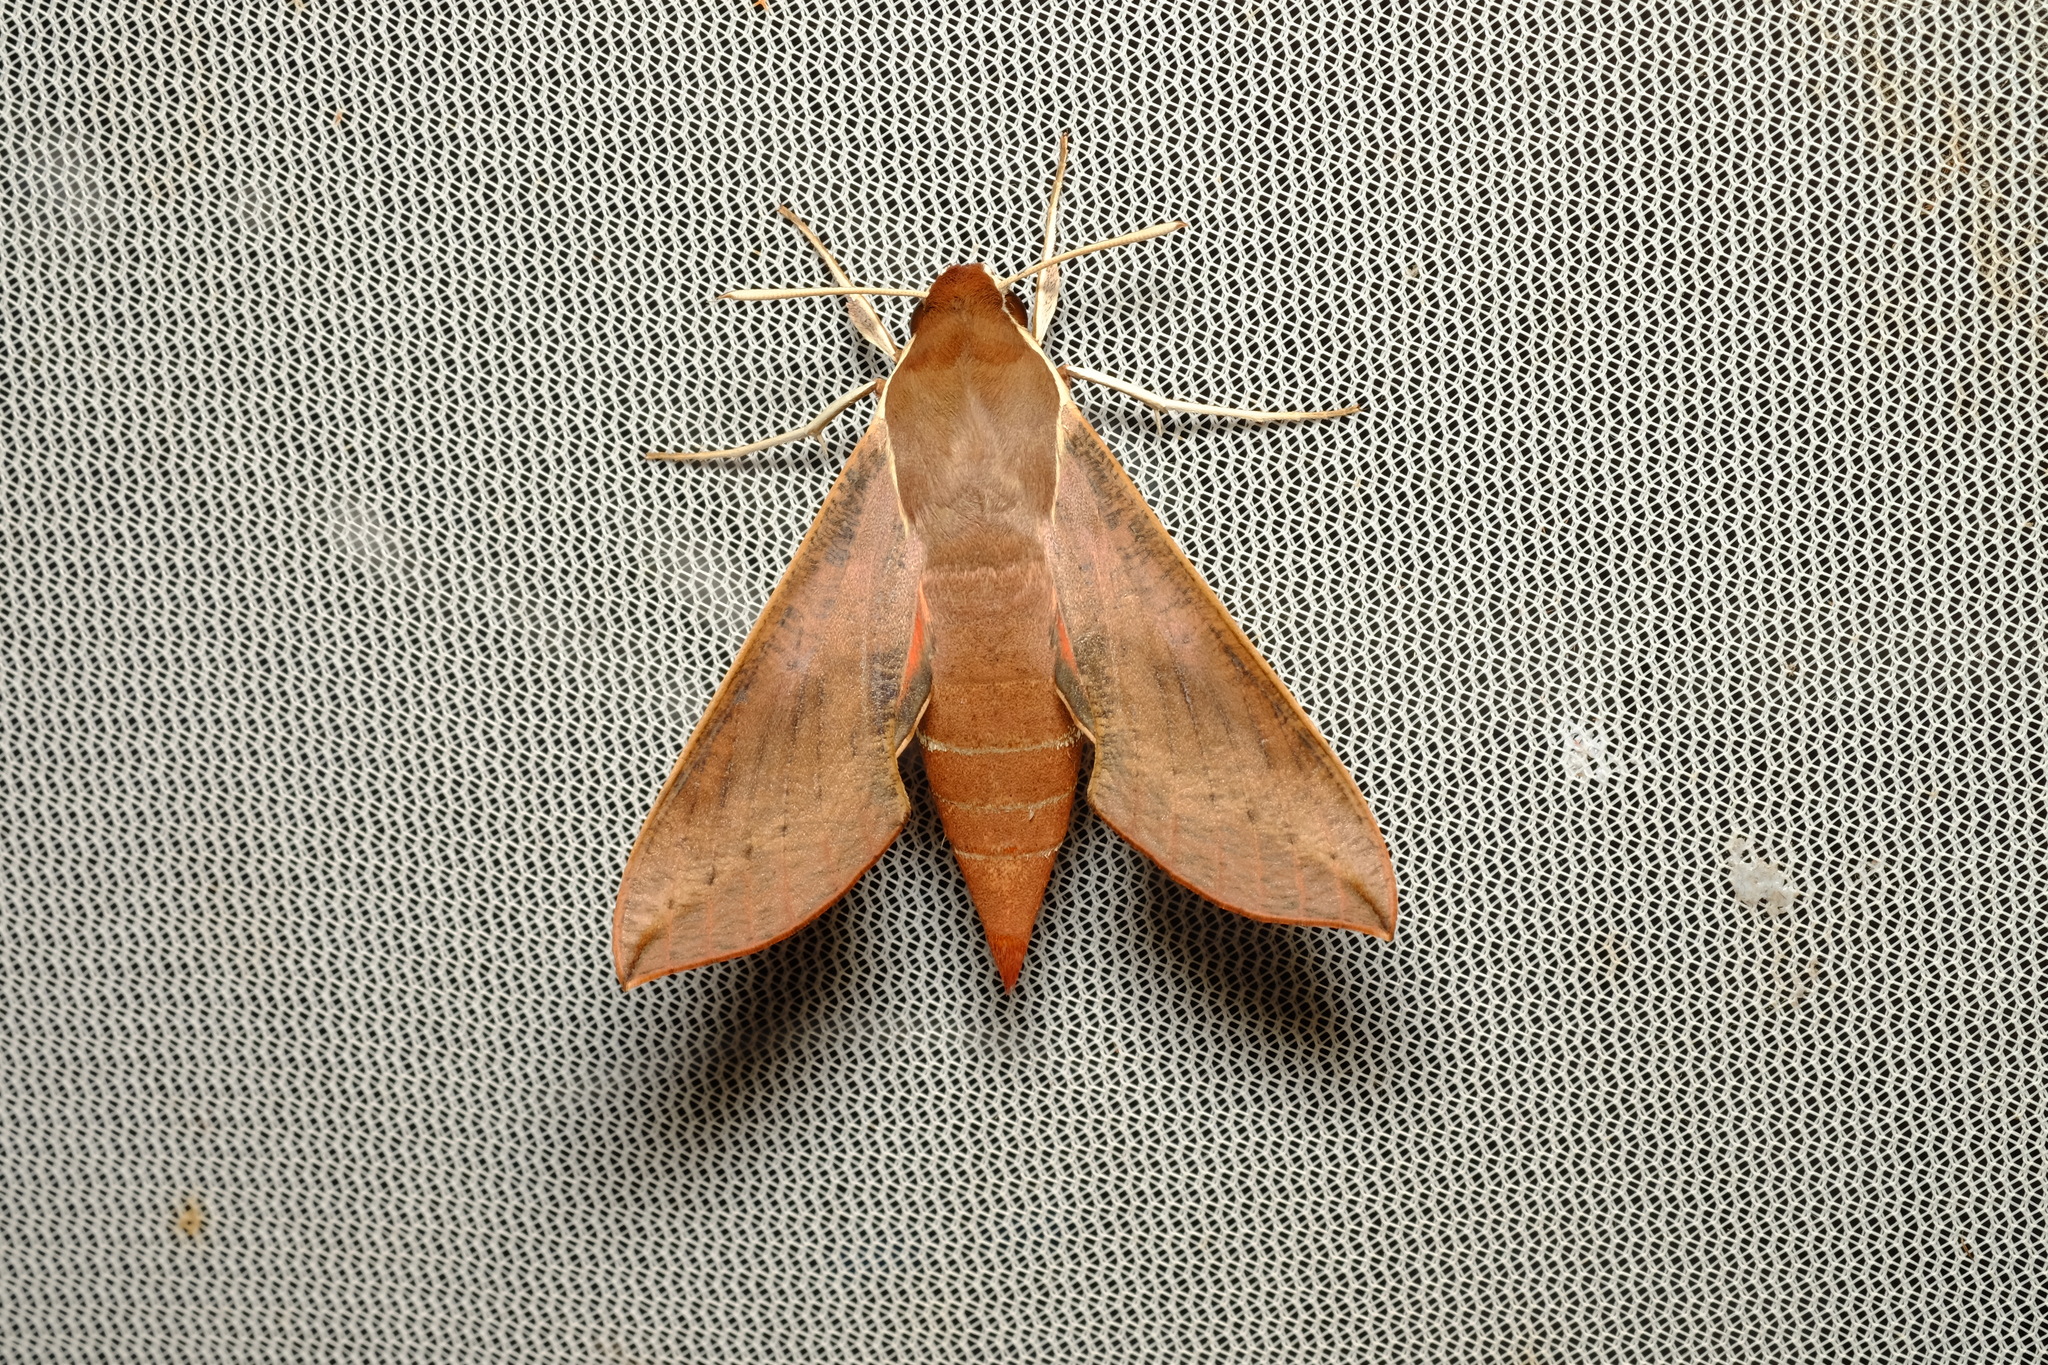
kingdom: Animalia
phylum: Arthropoda
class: Insecta
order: Lepidoptera
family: Sphingidae
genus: Hippotion
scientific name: Hippotion scrofa
